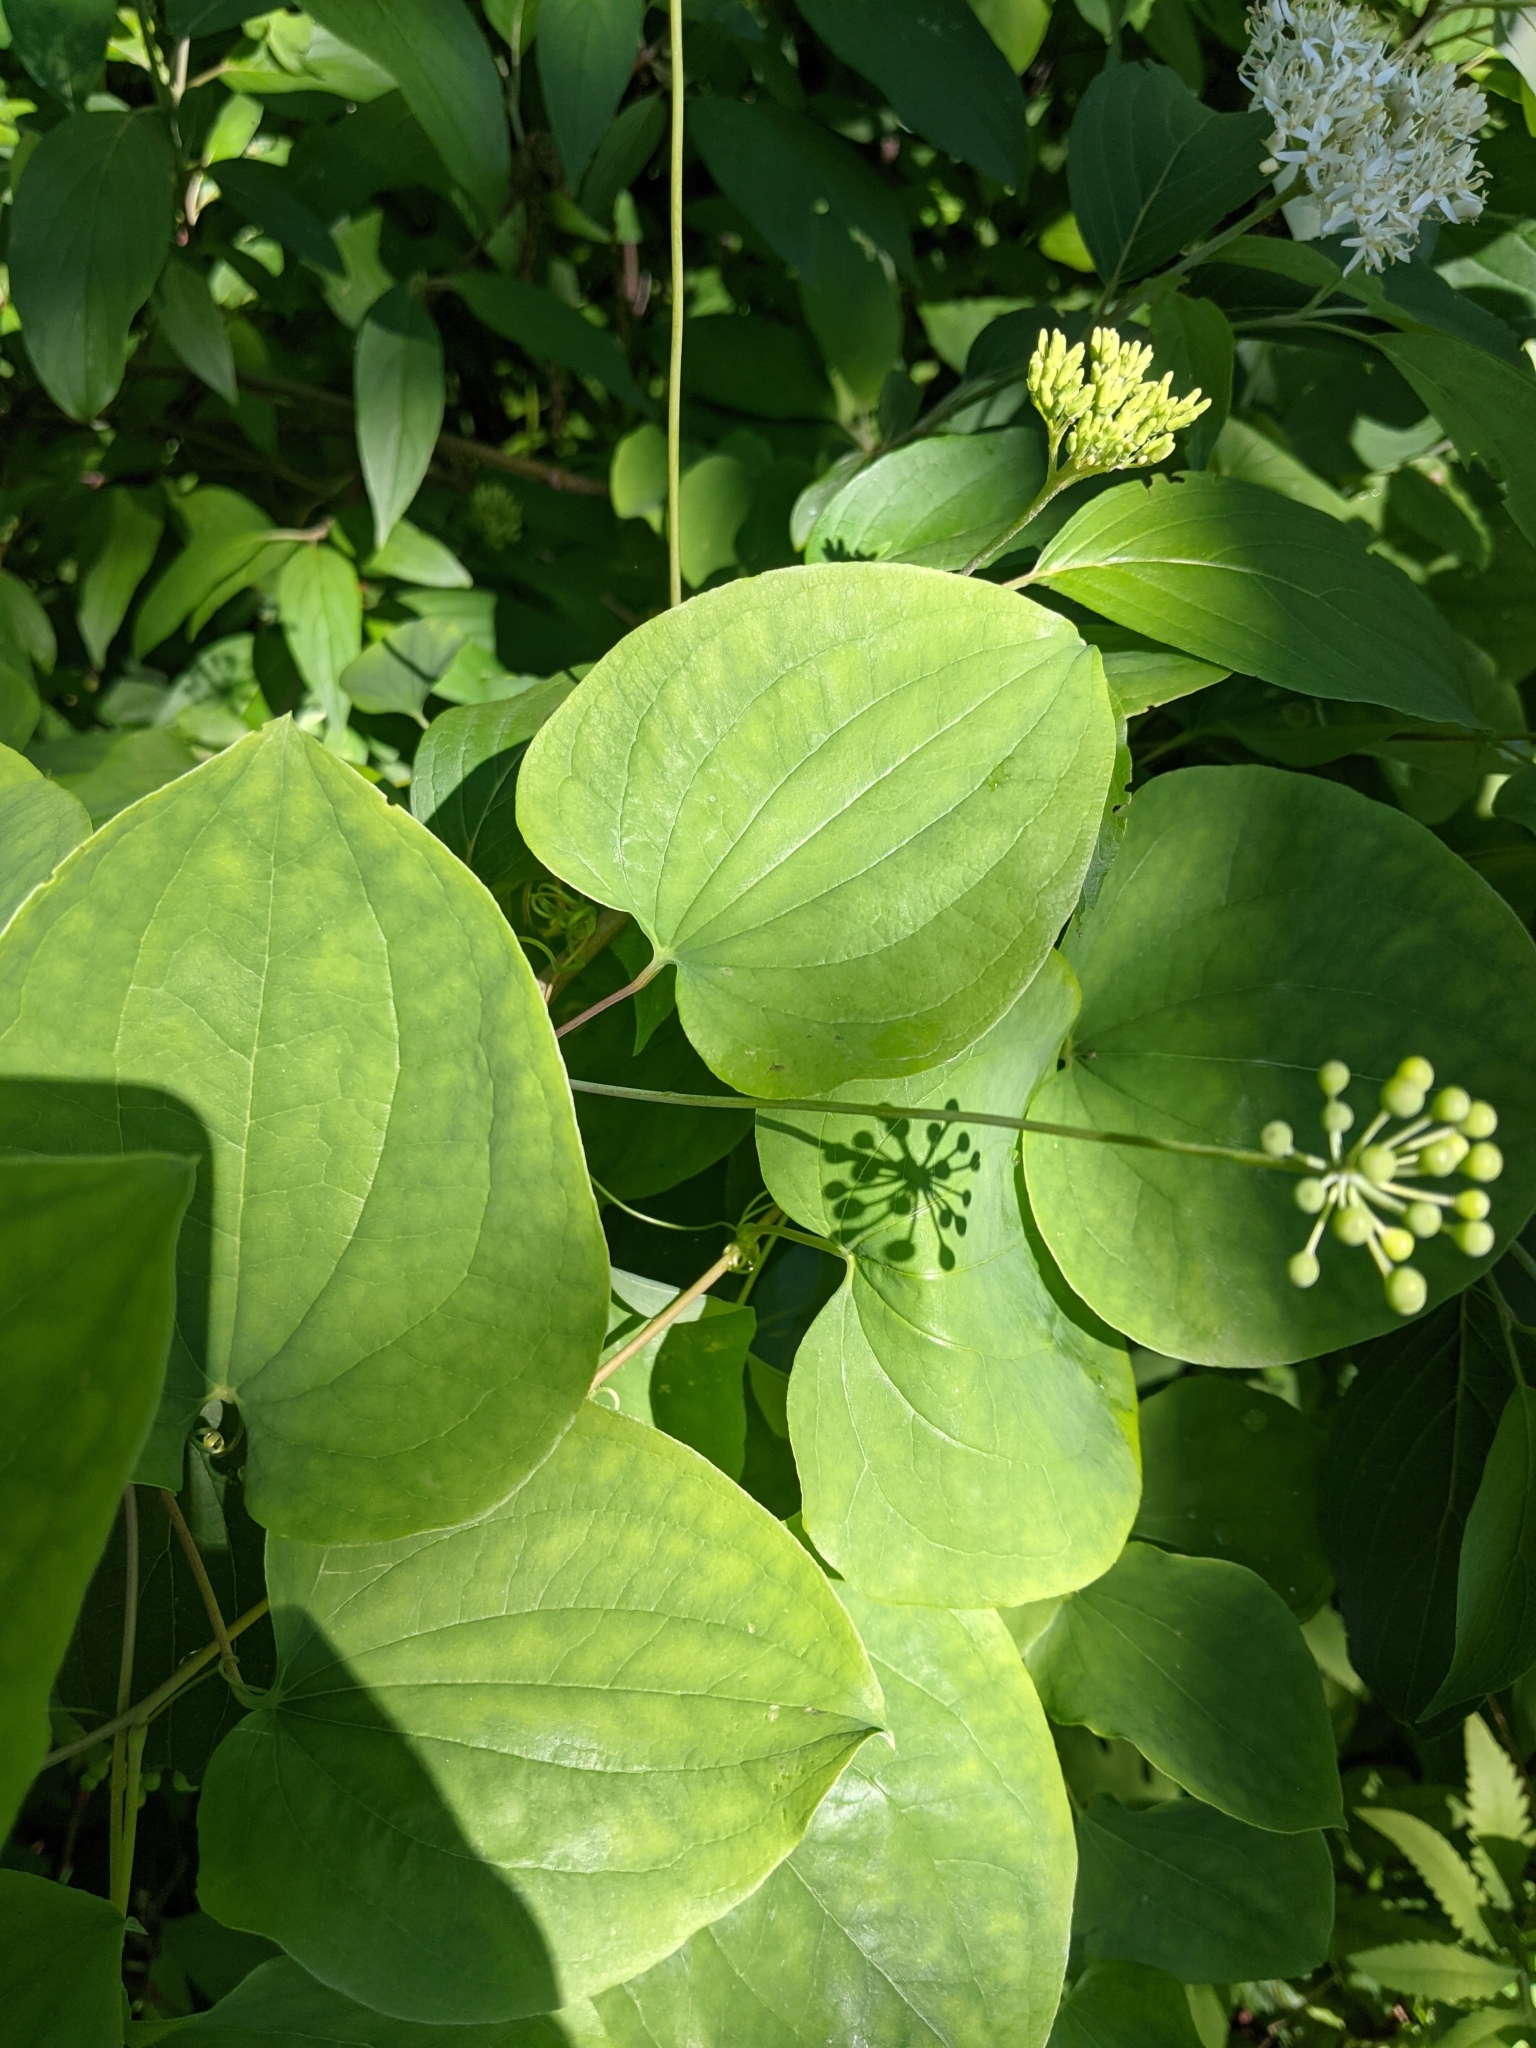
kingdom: Plantae
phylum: Tracheophyta
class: Liliopsida
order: Liliales
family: Smilacaceae
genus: Smilax
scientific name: Smilax herbacea
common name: Jacob's-ladder
